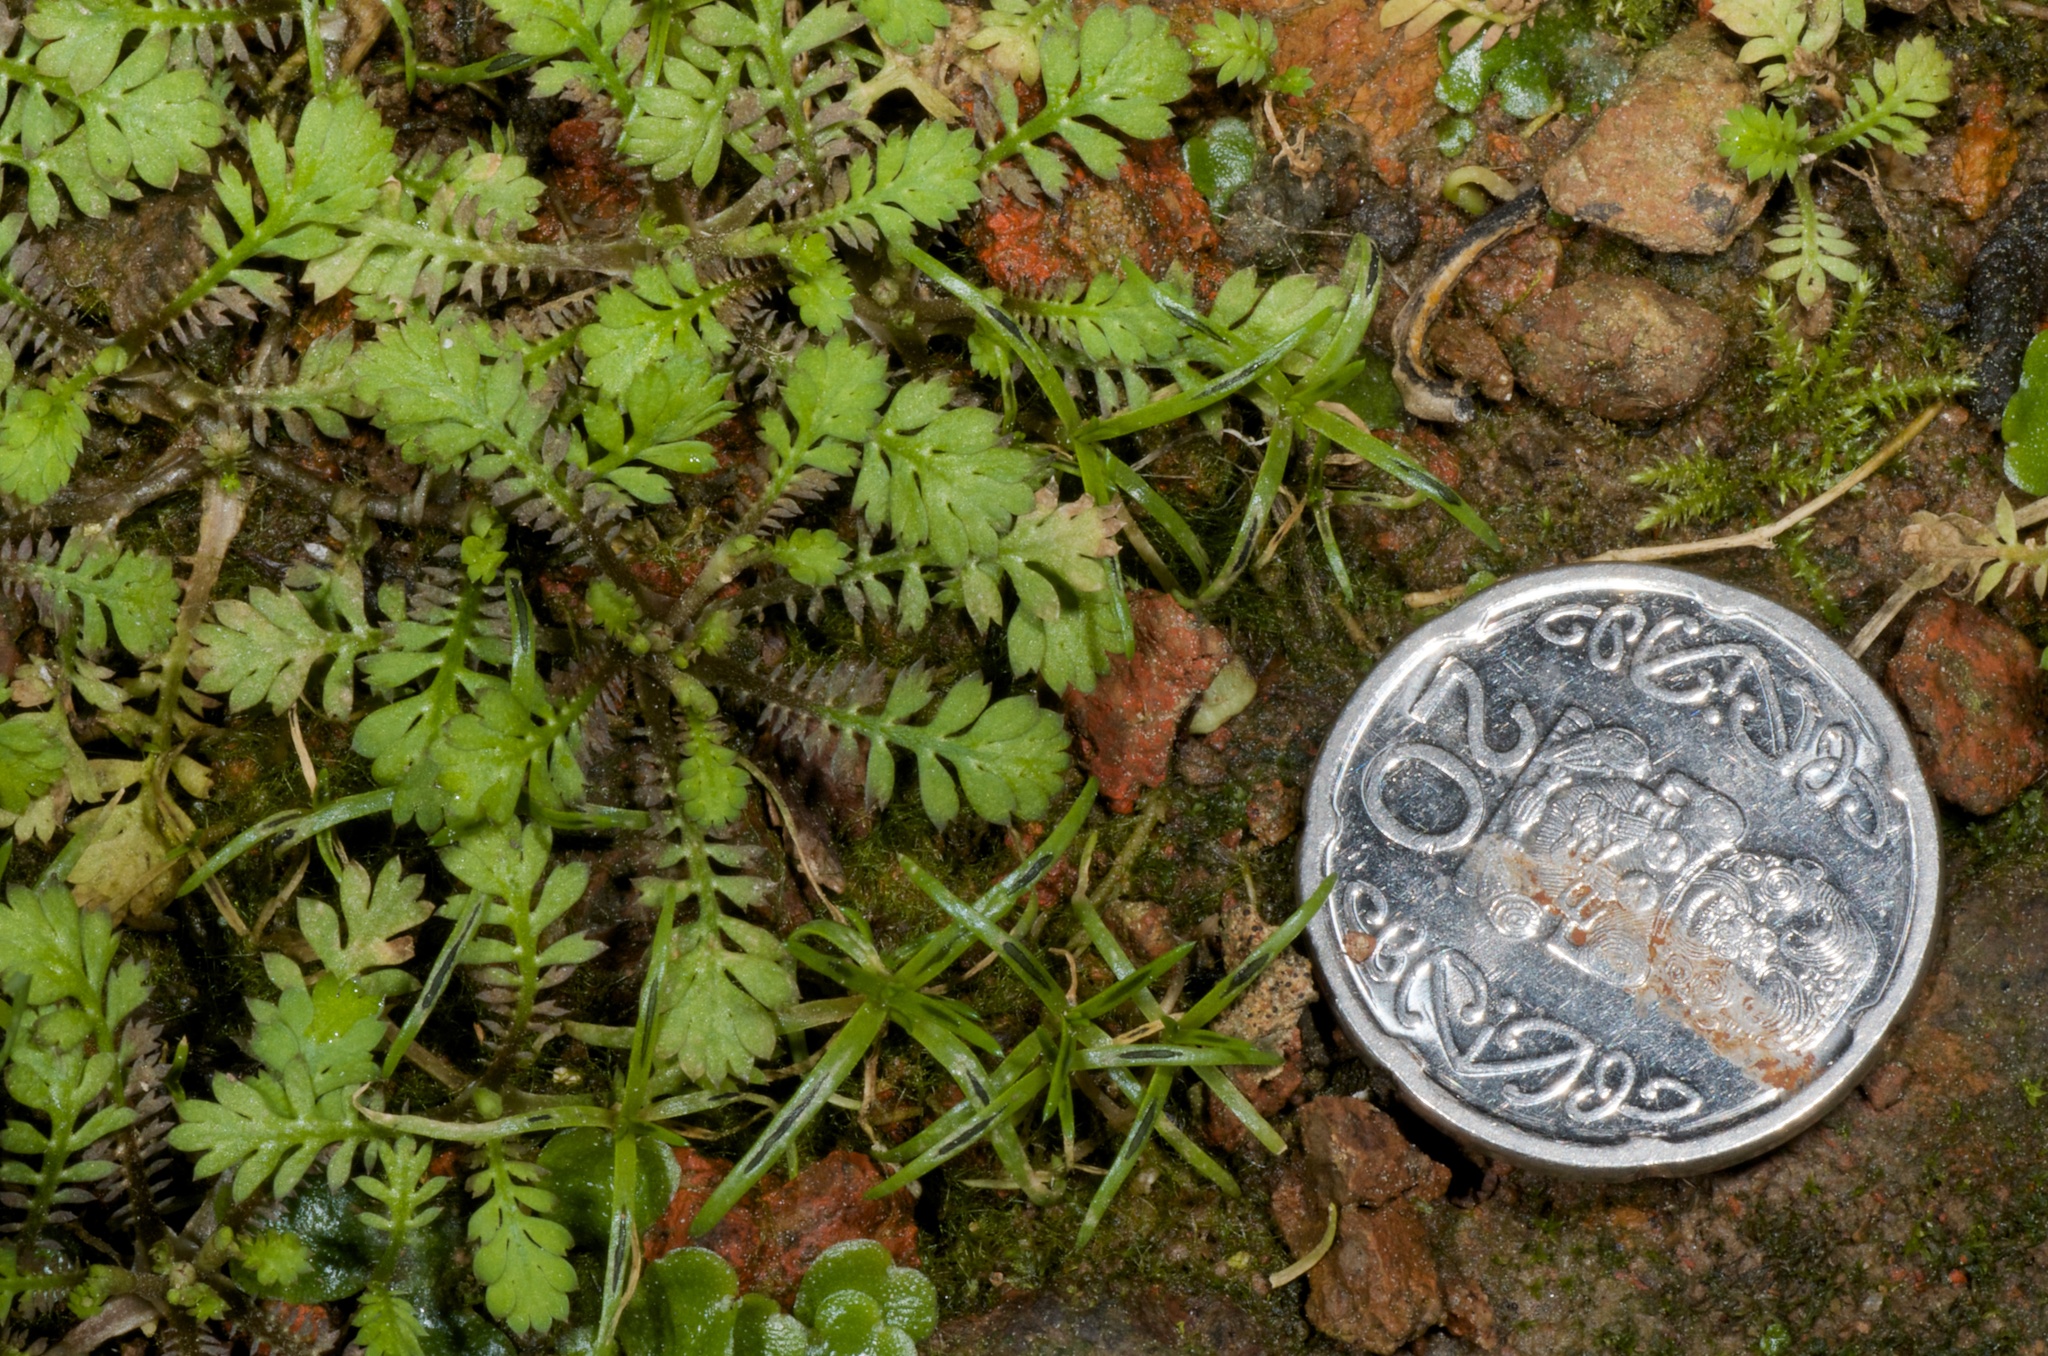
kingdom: Plantae
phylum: Tracheophyta
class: Magnoliopsida
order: Asterales
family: Asteraceae
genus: Leptinella
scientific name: Leptinella nana
